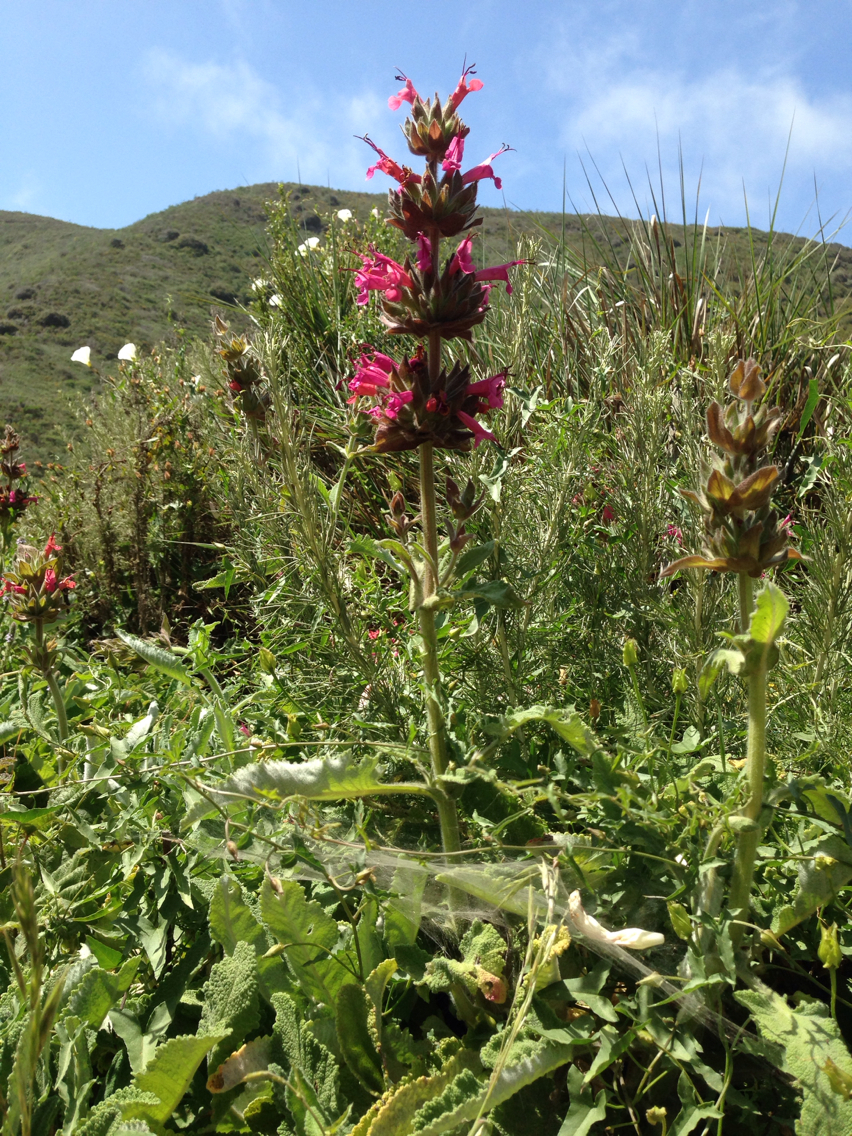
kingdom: Plantae
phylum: Tracheophyta
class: Magnoliopsida
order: Lamiales
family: Lamiaceae
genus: Salvia
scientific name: Salvia spathacea
